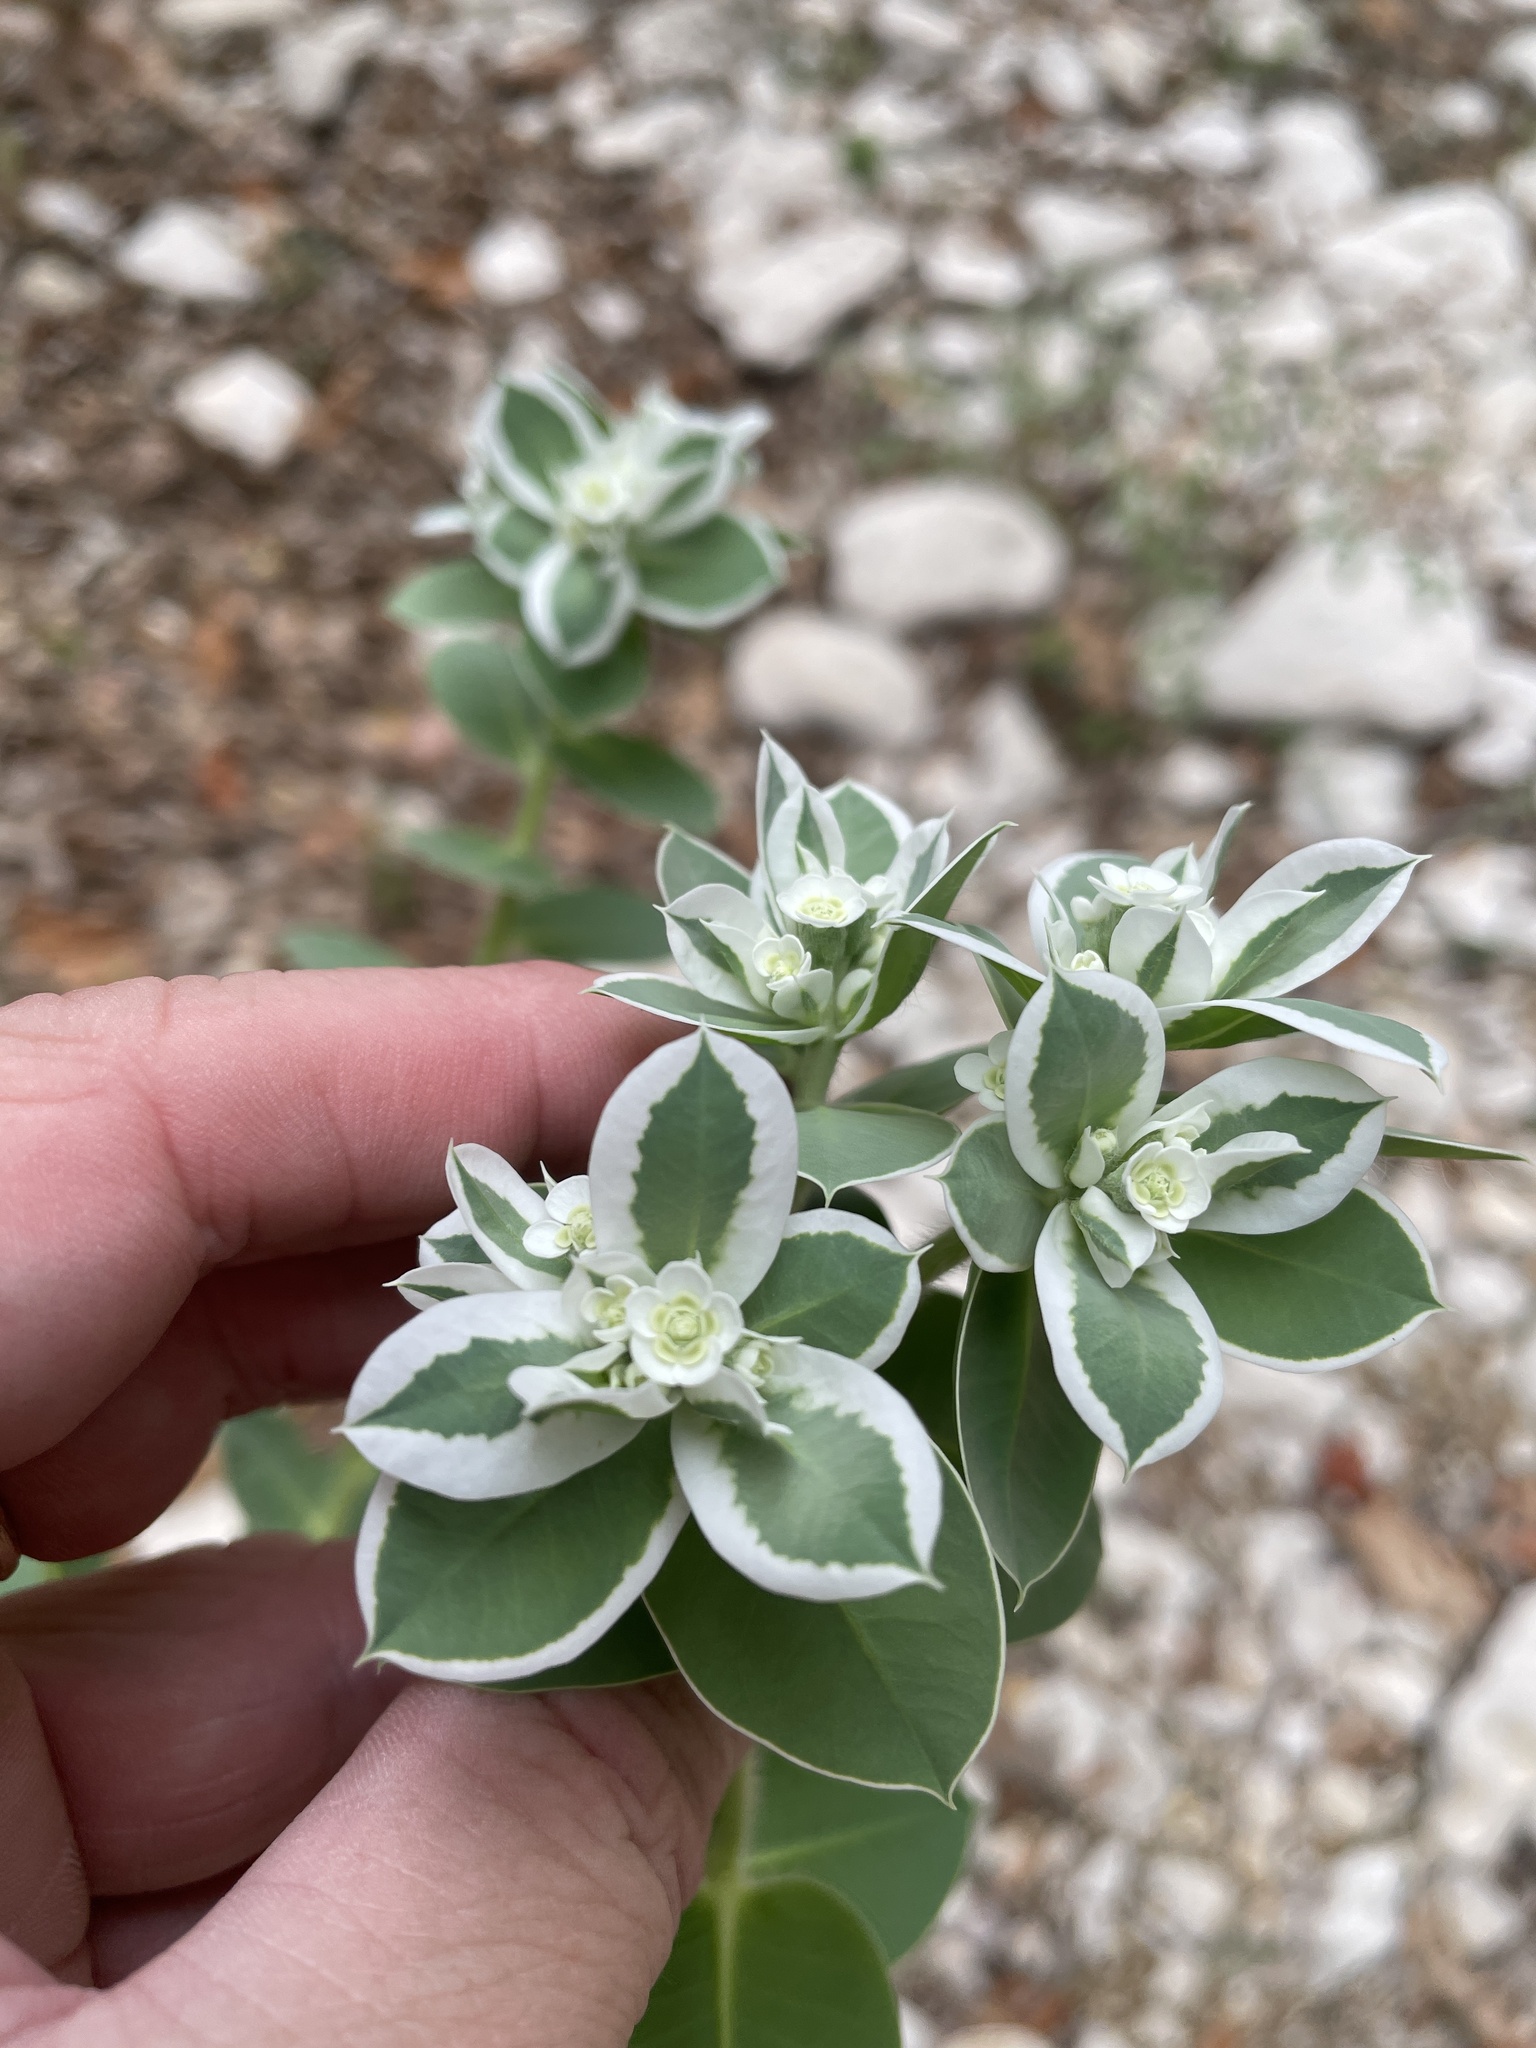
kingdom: Plantae
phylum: Tracheophyta
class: Magnoliopsida
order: Malpighiales
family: Euphorbiaceae
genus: Euphorbia
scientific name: Euphorbia marginata
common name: Ghostweed
